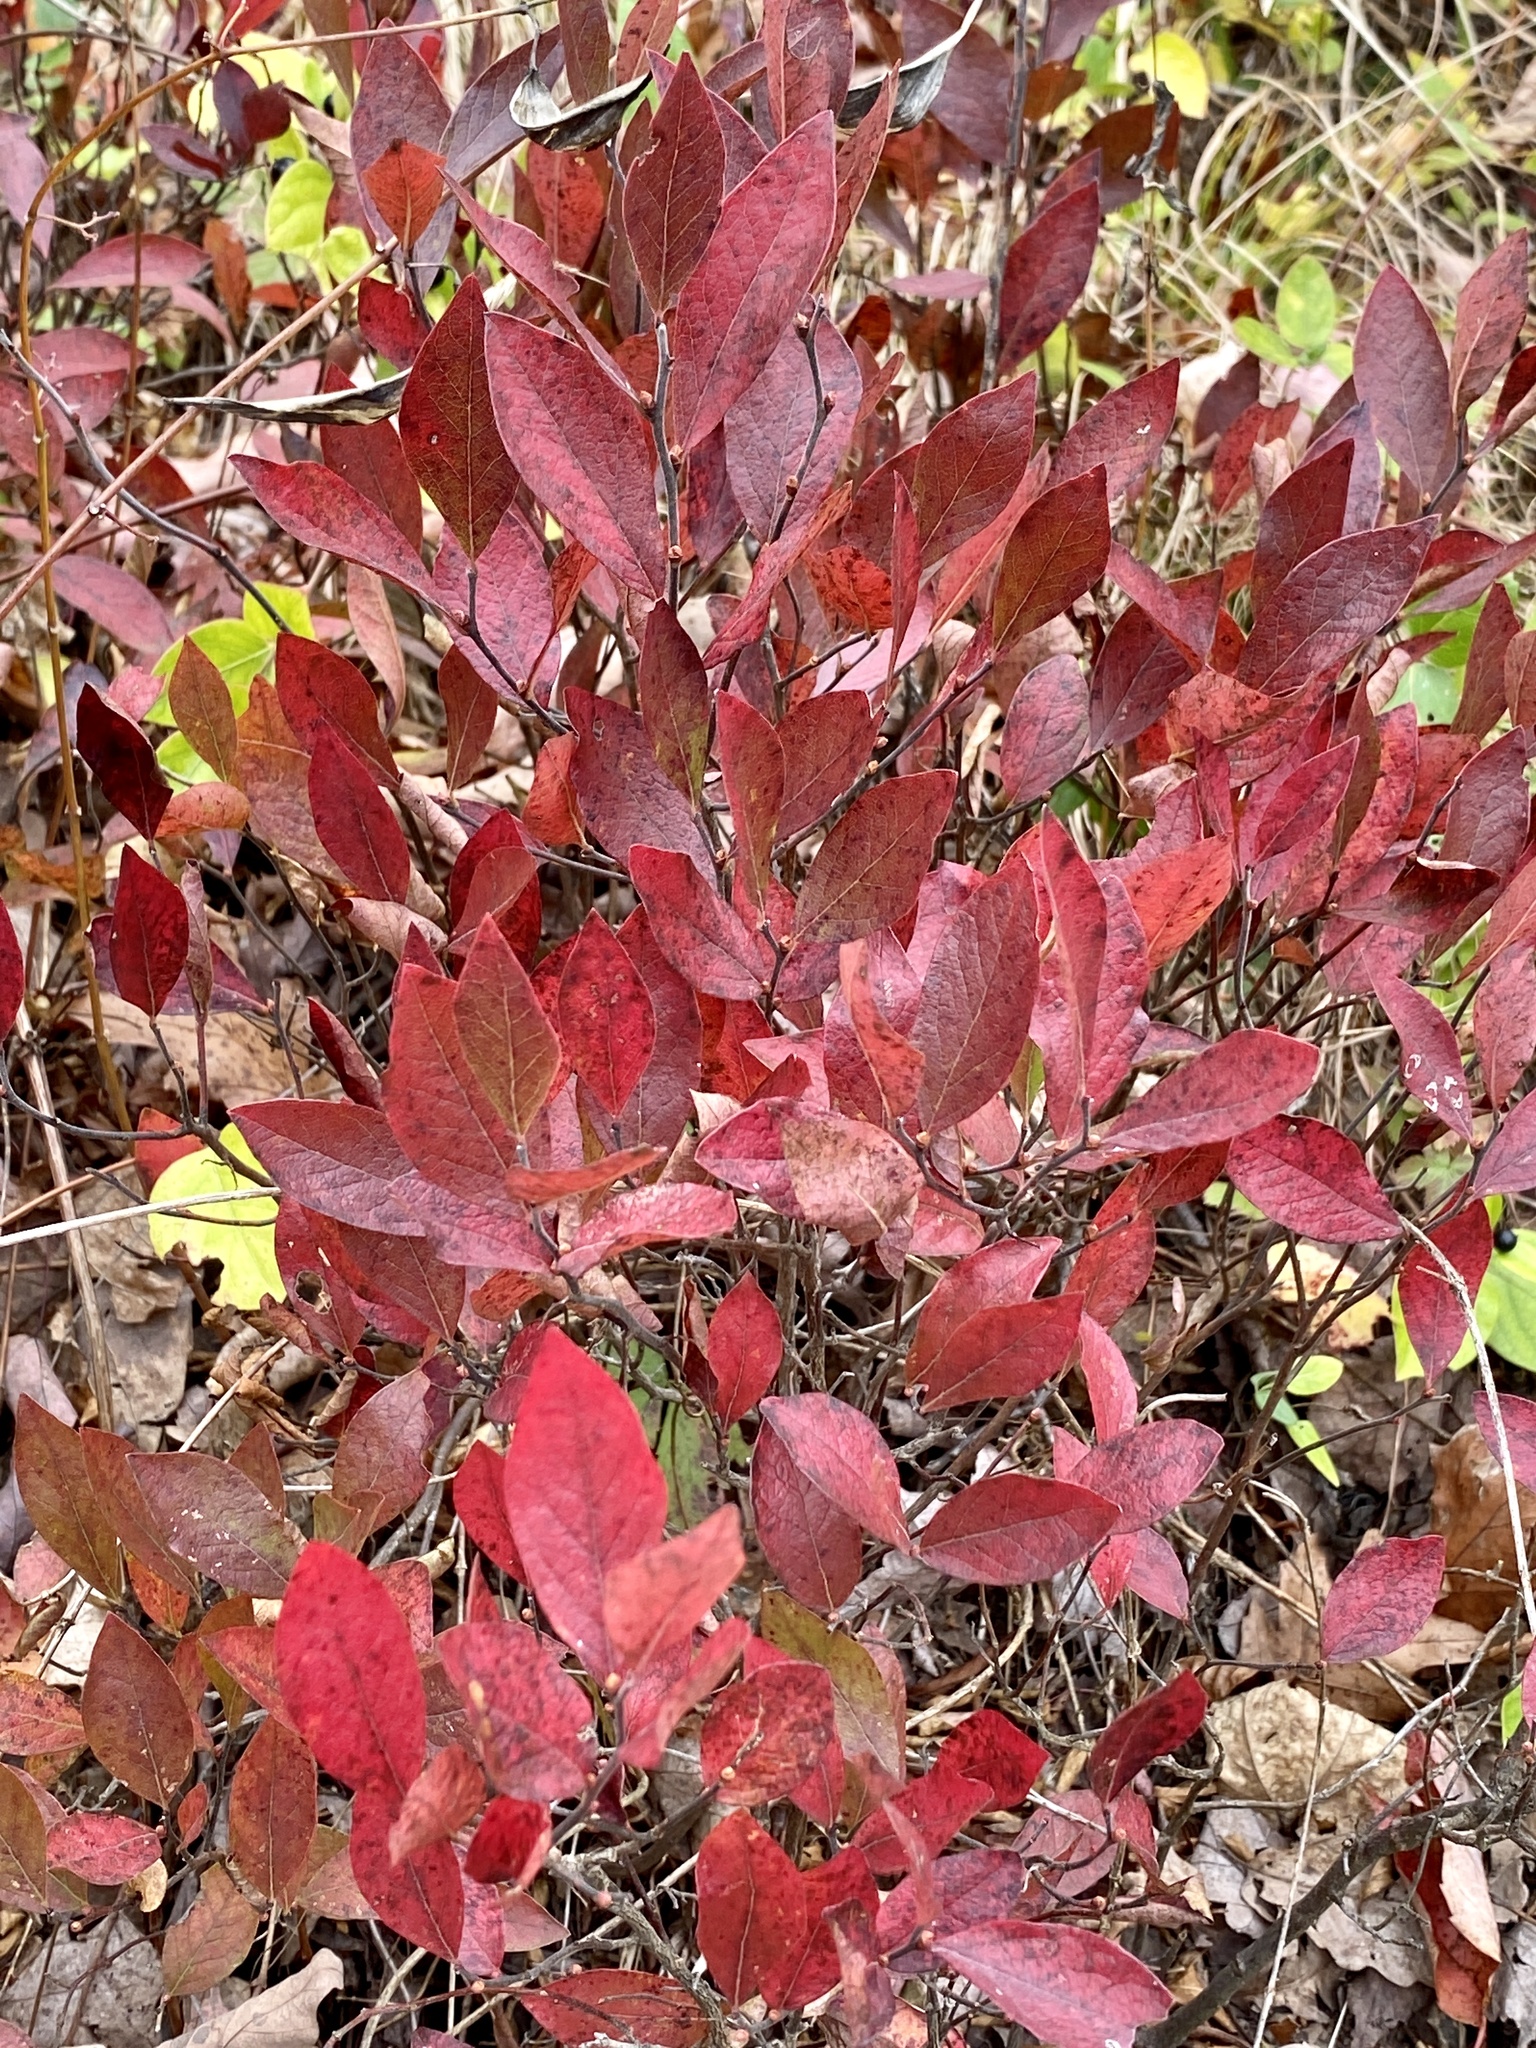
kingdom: Plantae
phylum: Tracheophyta
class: Magnoliopsida
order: Ericales
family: Ericaceae
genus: Gaylussacia
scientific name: Gaylussacia baccata
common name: Black huckleberry
